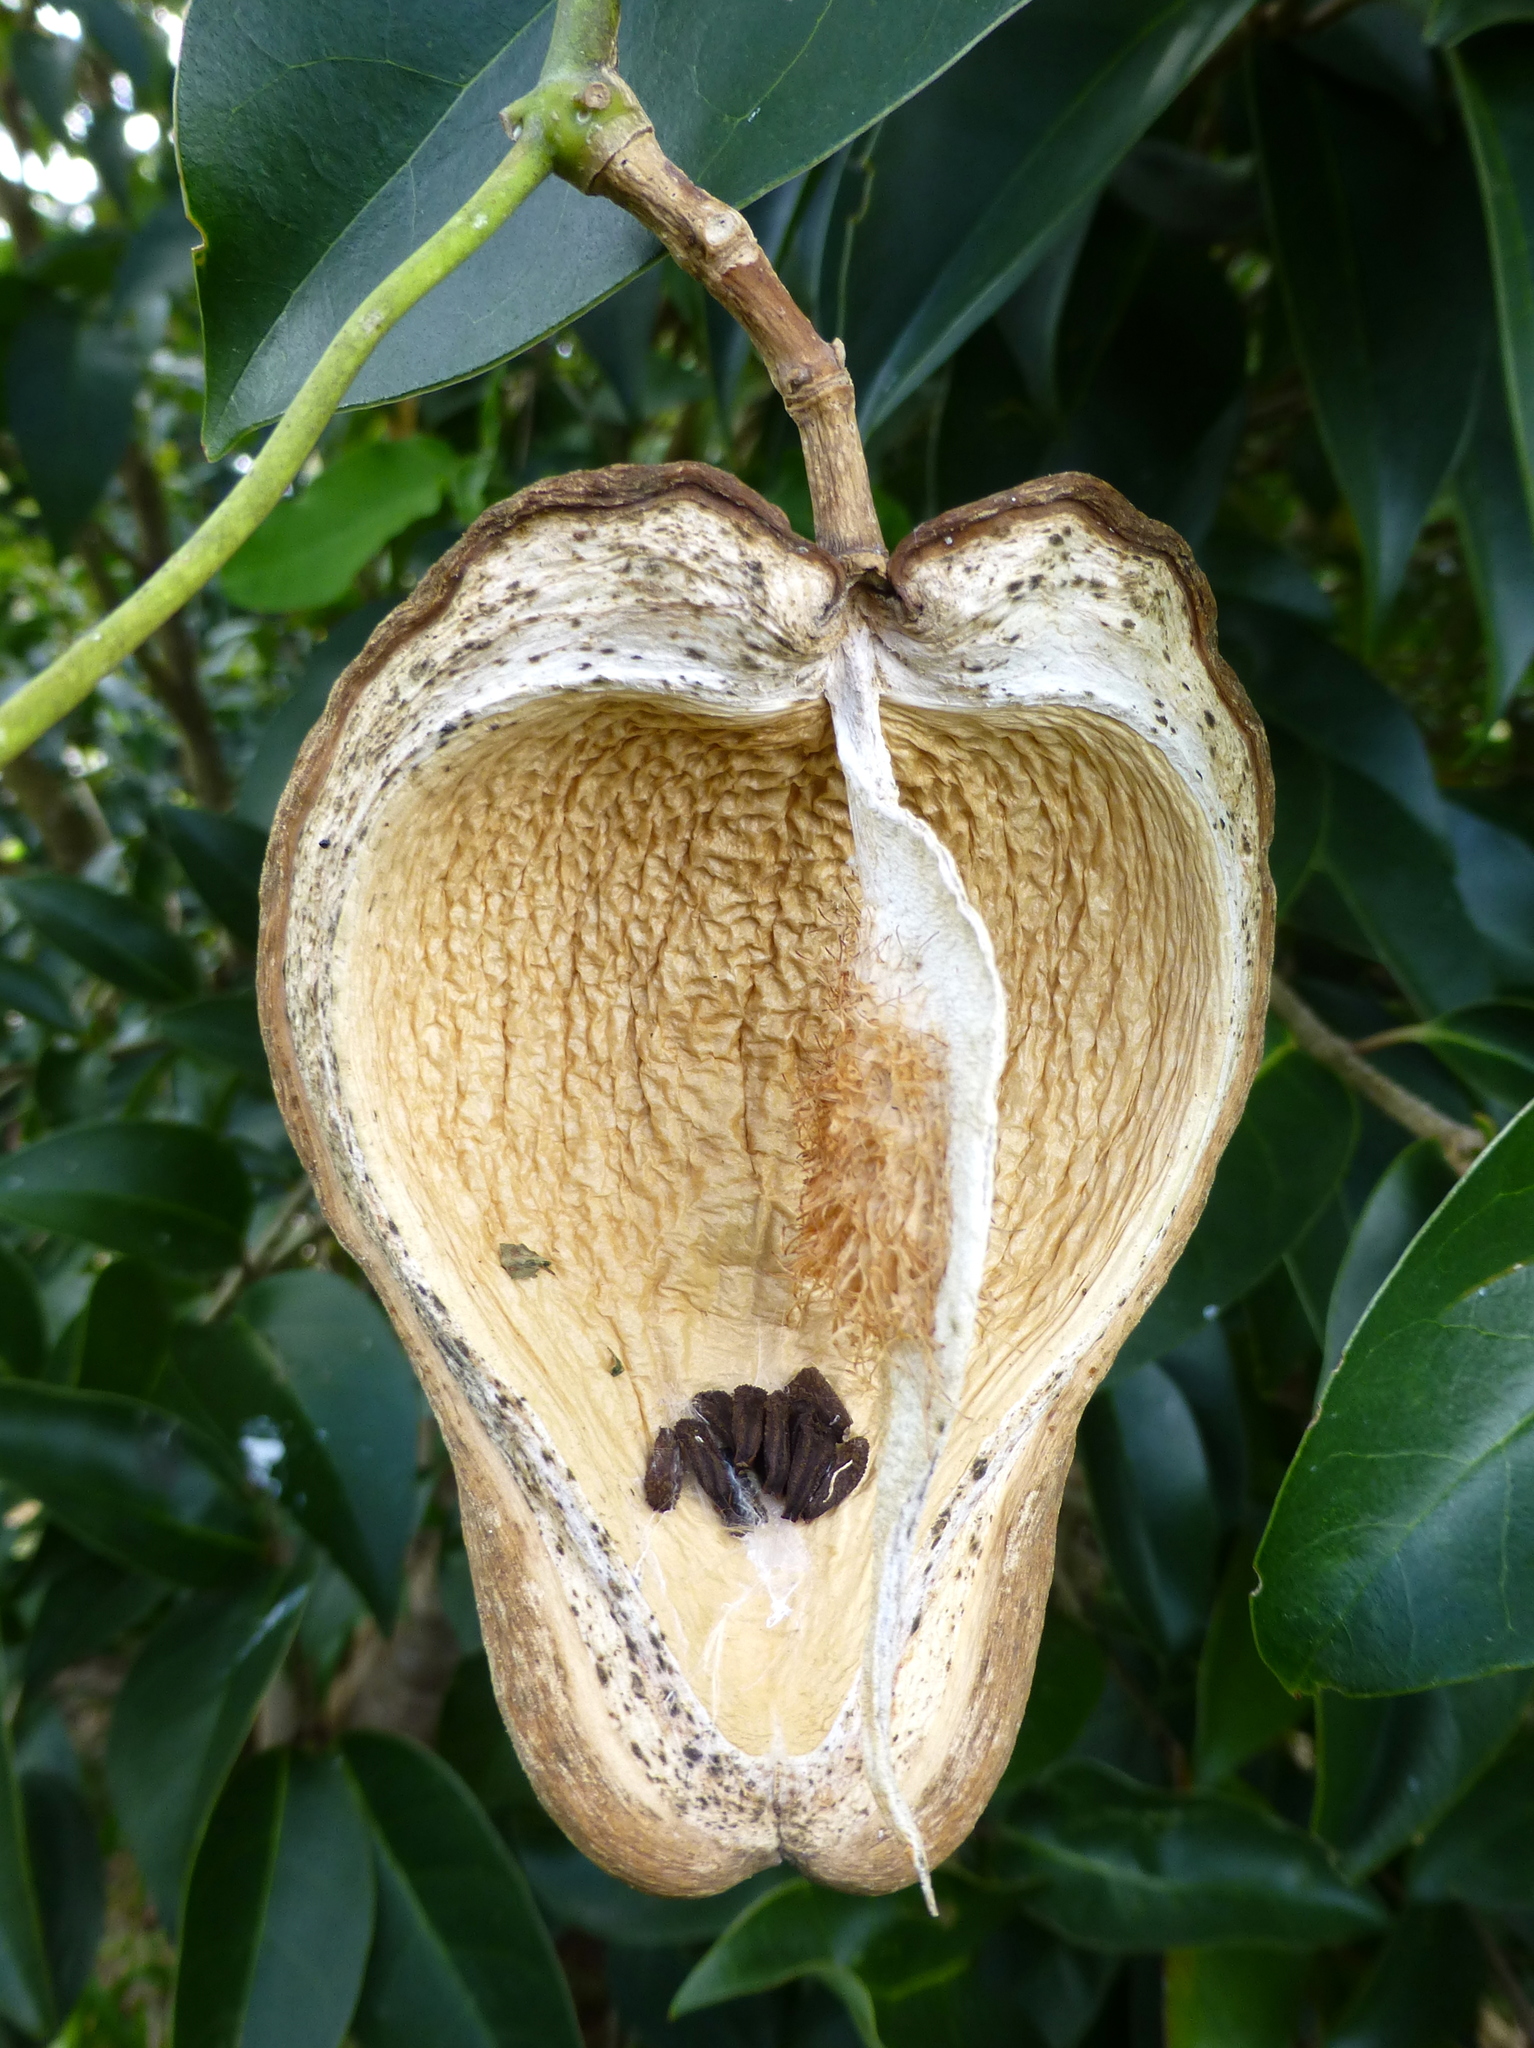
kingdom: Plantae
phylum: Tracheophyta
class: Magnoliopsida
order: Gentianales
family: Apocynaceae
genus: Araujia
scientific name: Araujia sericifera
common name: White bladderflower
